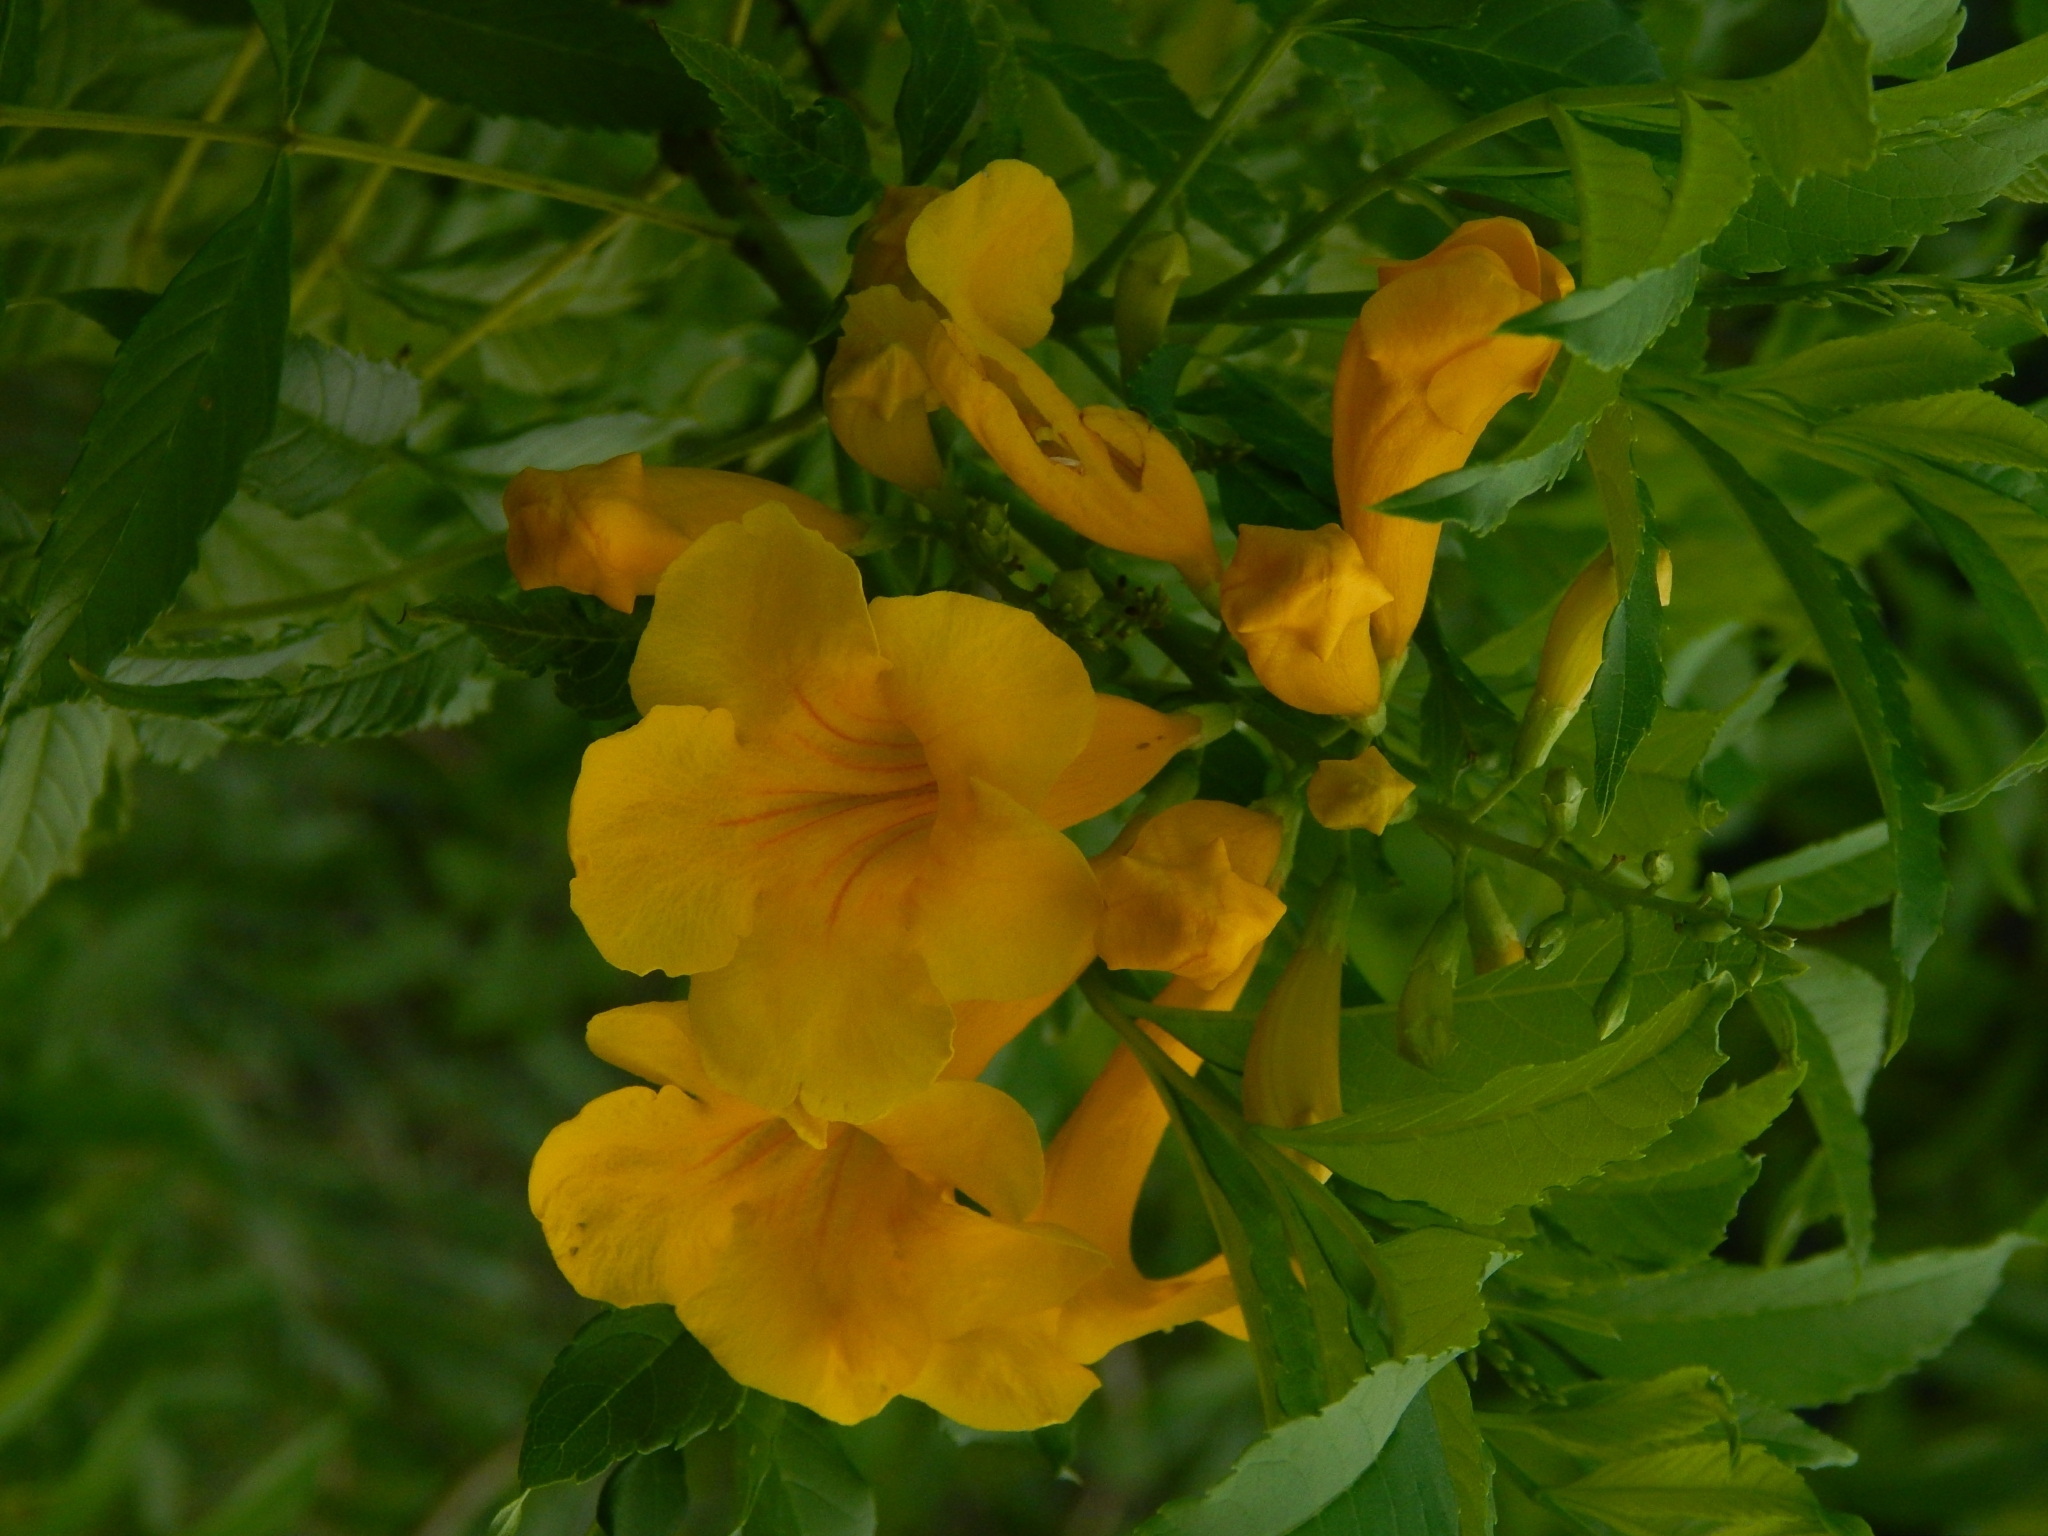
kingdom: Plantae
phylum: Tracheophyta
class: Magnoliopsida
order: Lamiales
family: Bignoniaceae
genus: Tecoma
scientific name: Tecoma stans
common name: Yellow trumpetbush
